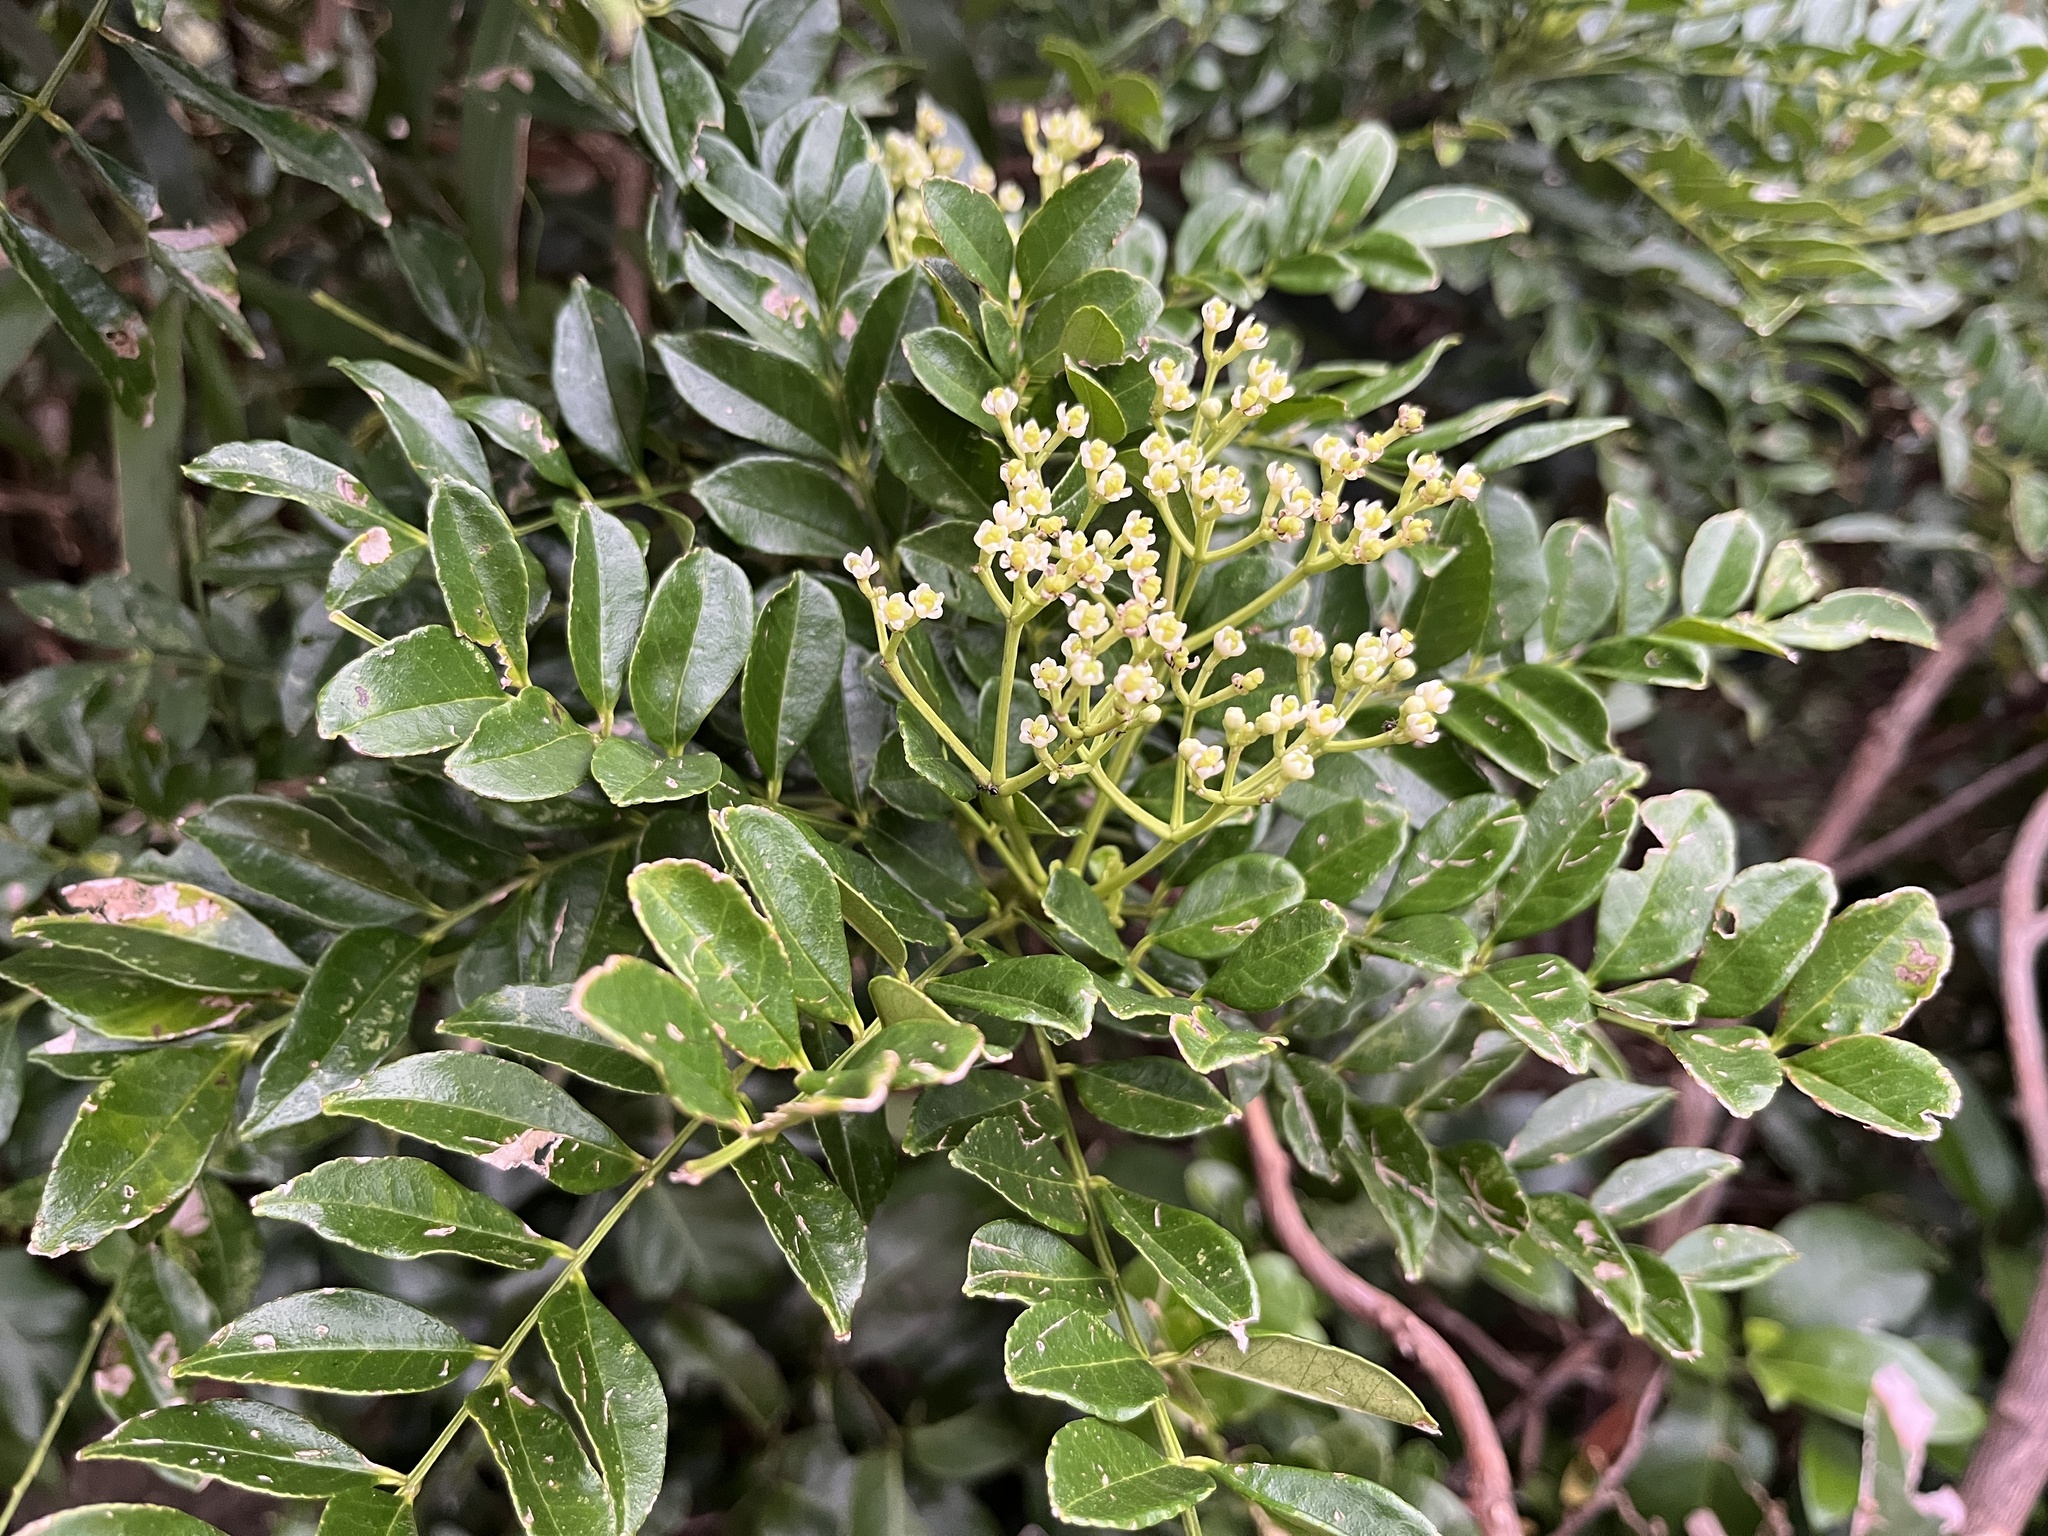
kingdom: Plantae
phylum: Tracheophyta
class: Magnoliopsida
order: Sapindales
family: Rutaceae
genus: Zanthoxylum
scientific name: Zanthoxylum avicennae
